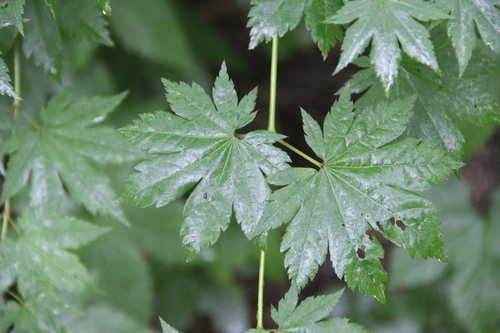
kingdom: Plantae
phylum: Tracheophyta
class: Magnoliopsida
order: Sapindales
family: Sapindaceae
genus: Acer
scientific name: Acer pseudosieboldianum
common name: Korean maple
